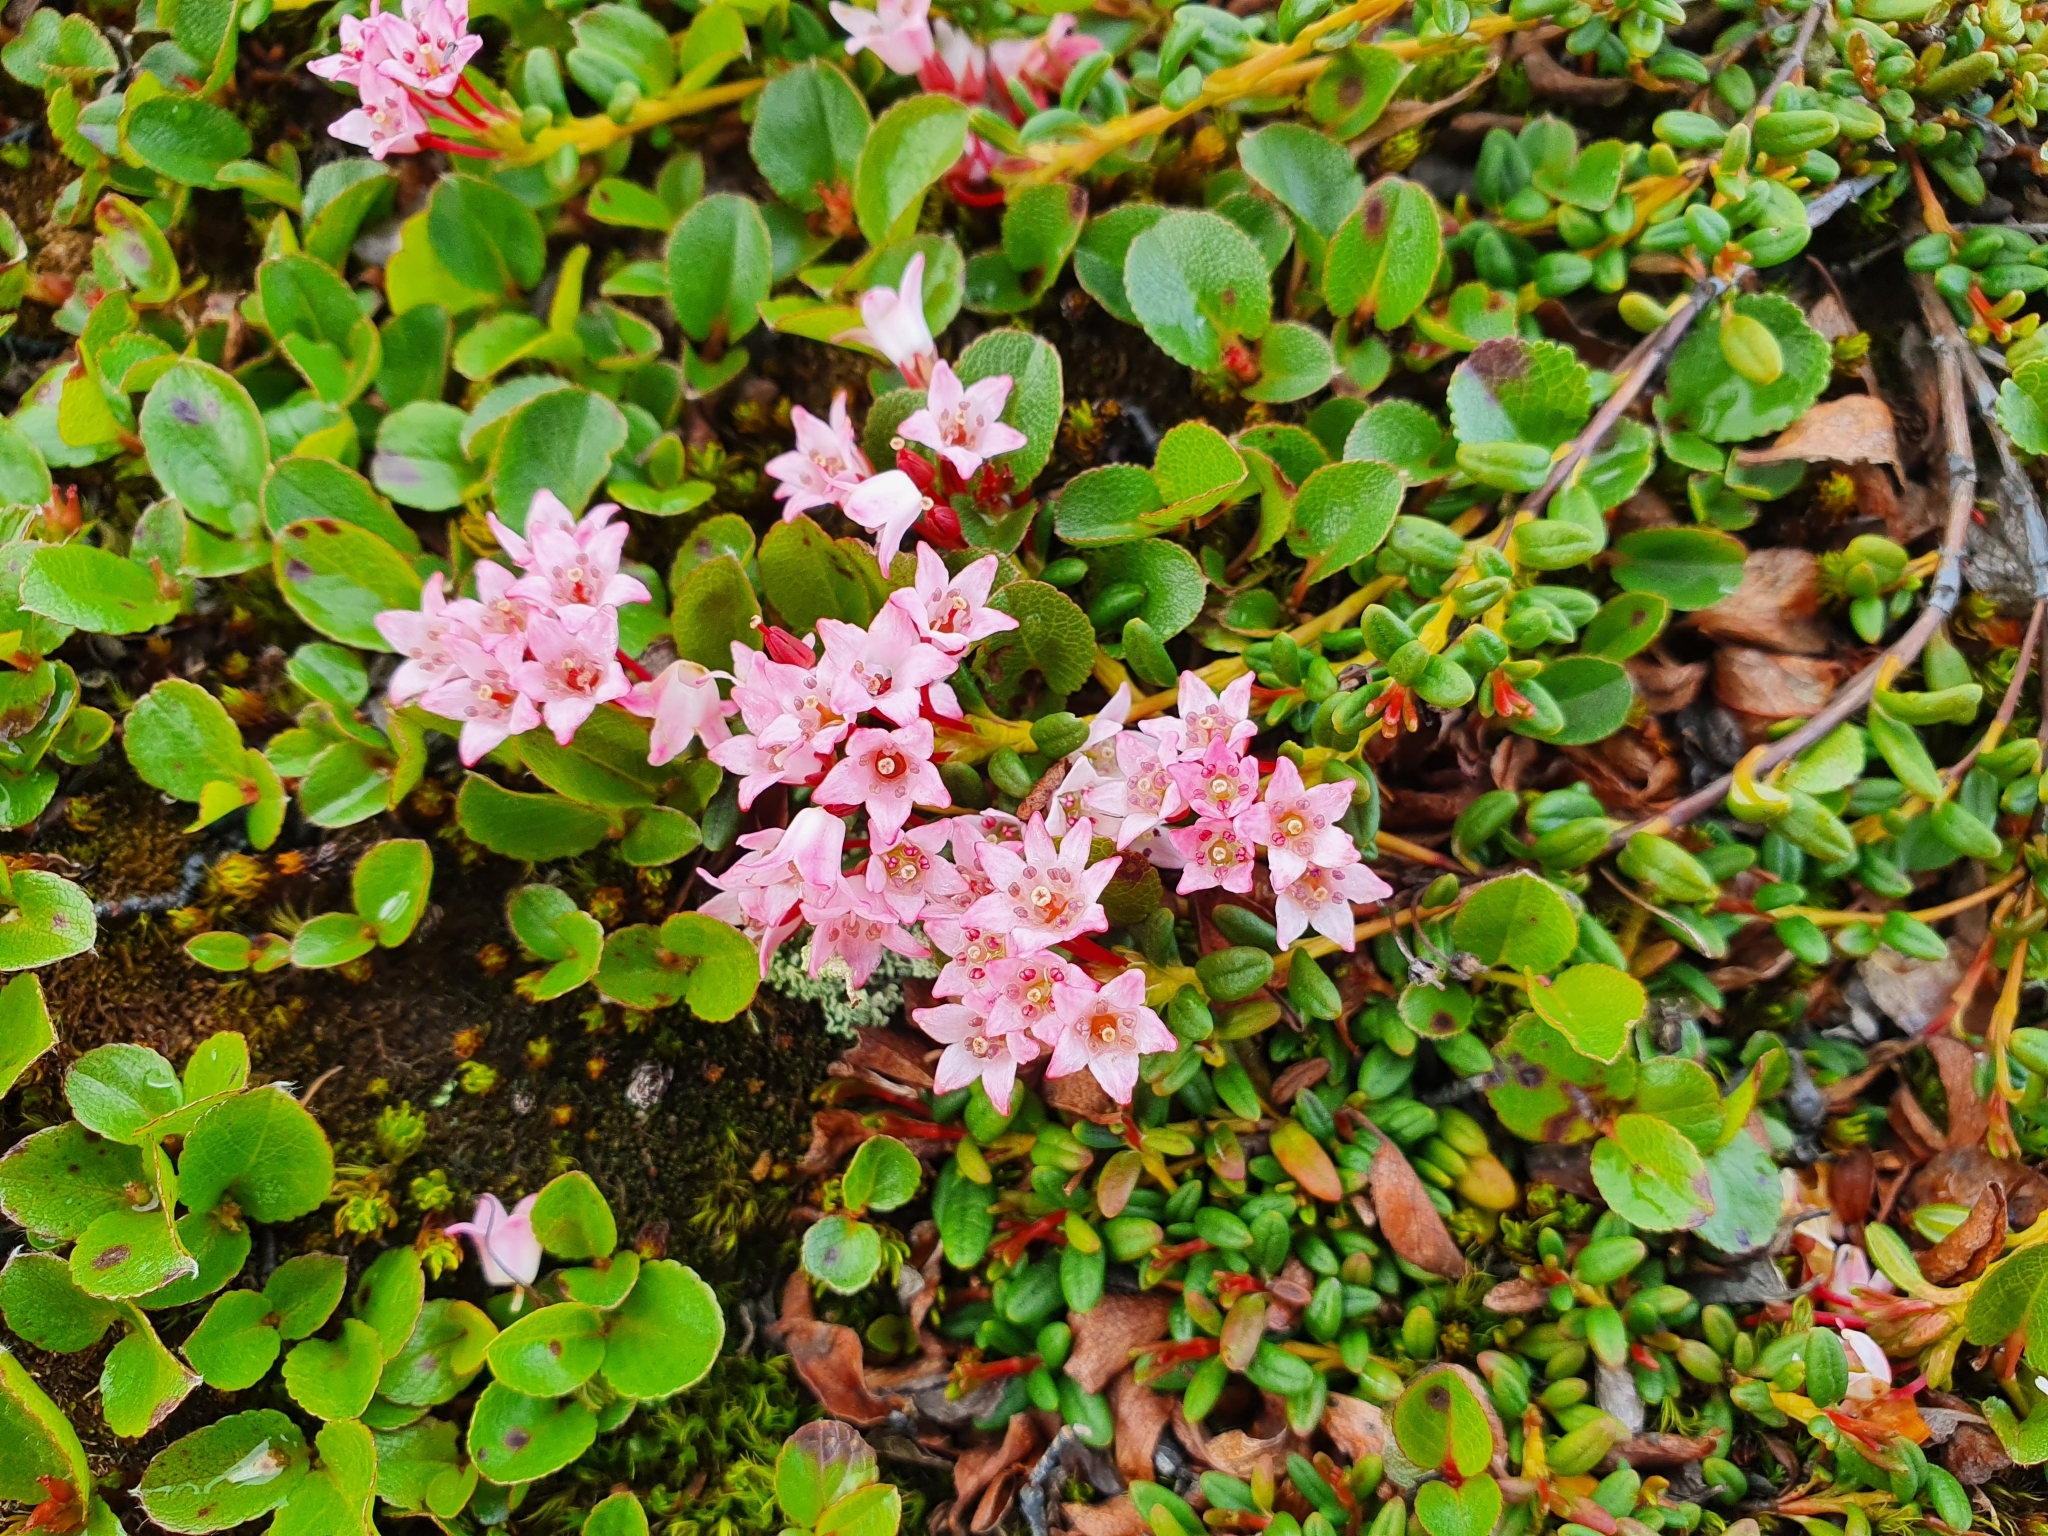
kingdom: Plantae
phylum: Tracheophyta
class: Magnoliopsida
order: Ericales
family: Ericaceae
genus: Kalmia
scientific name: Kalmia procumbens
